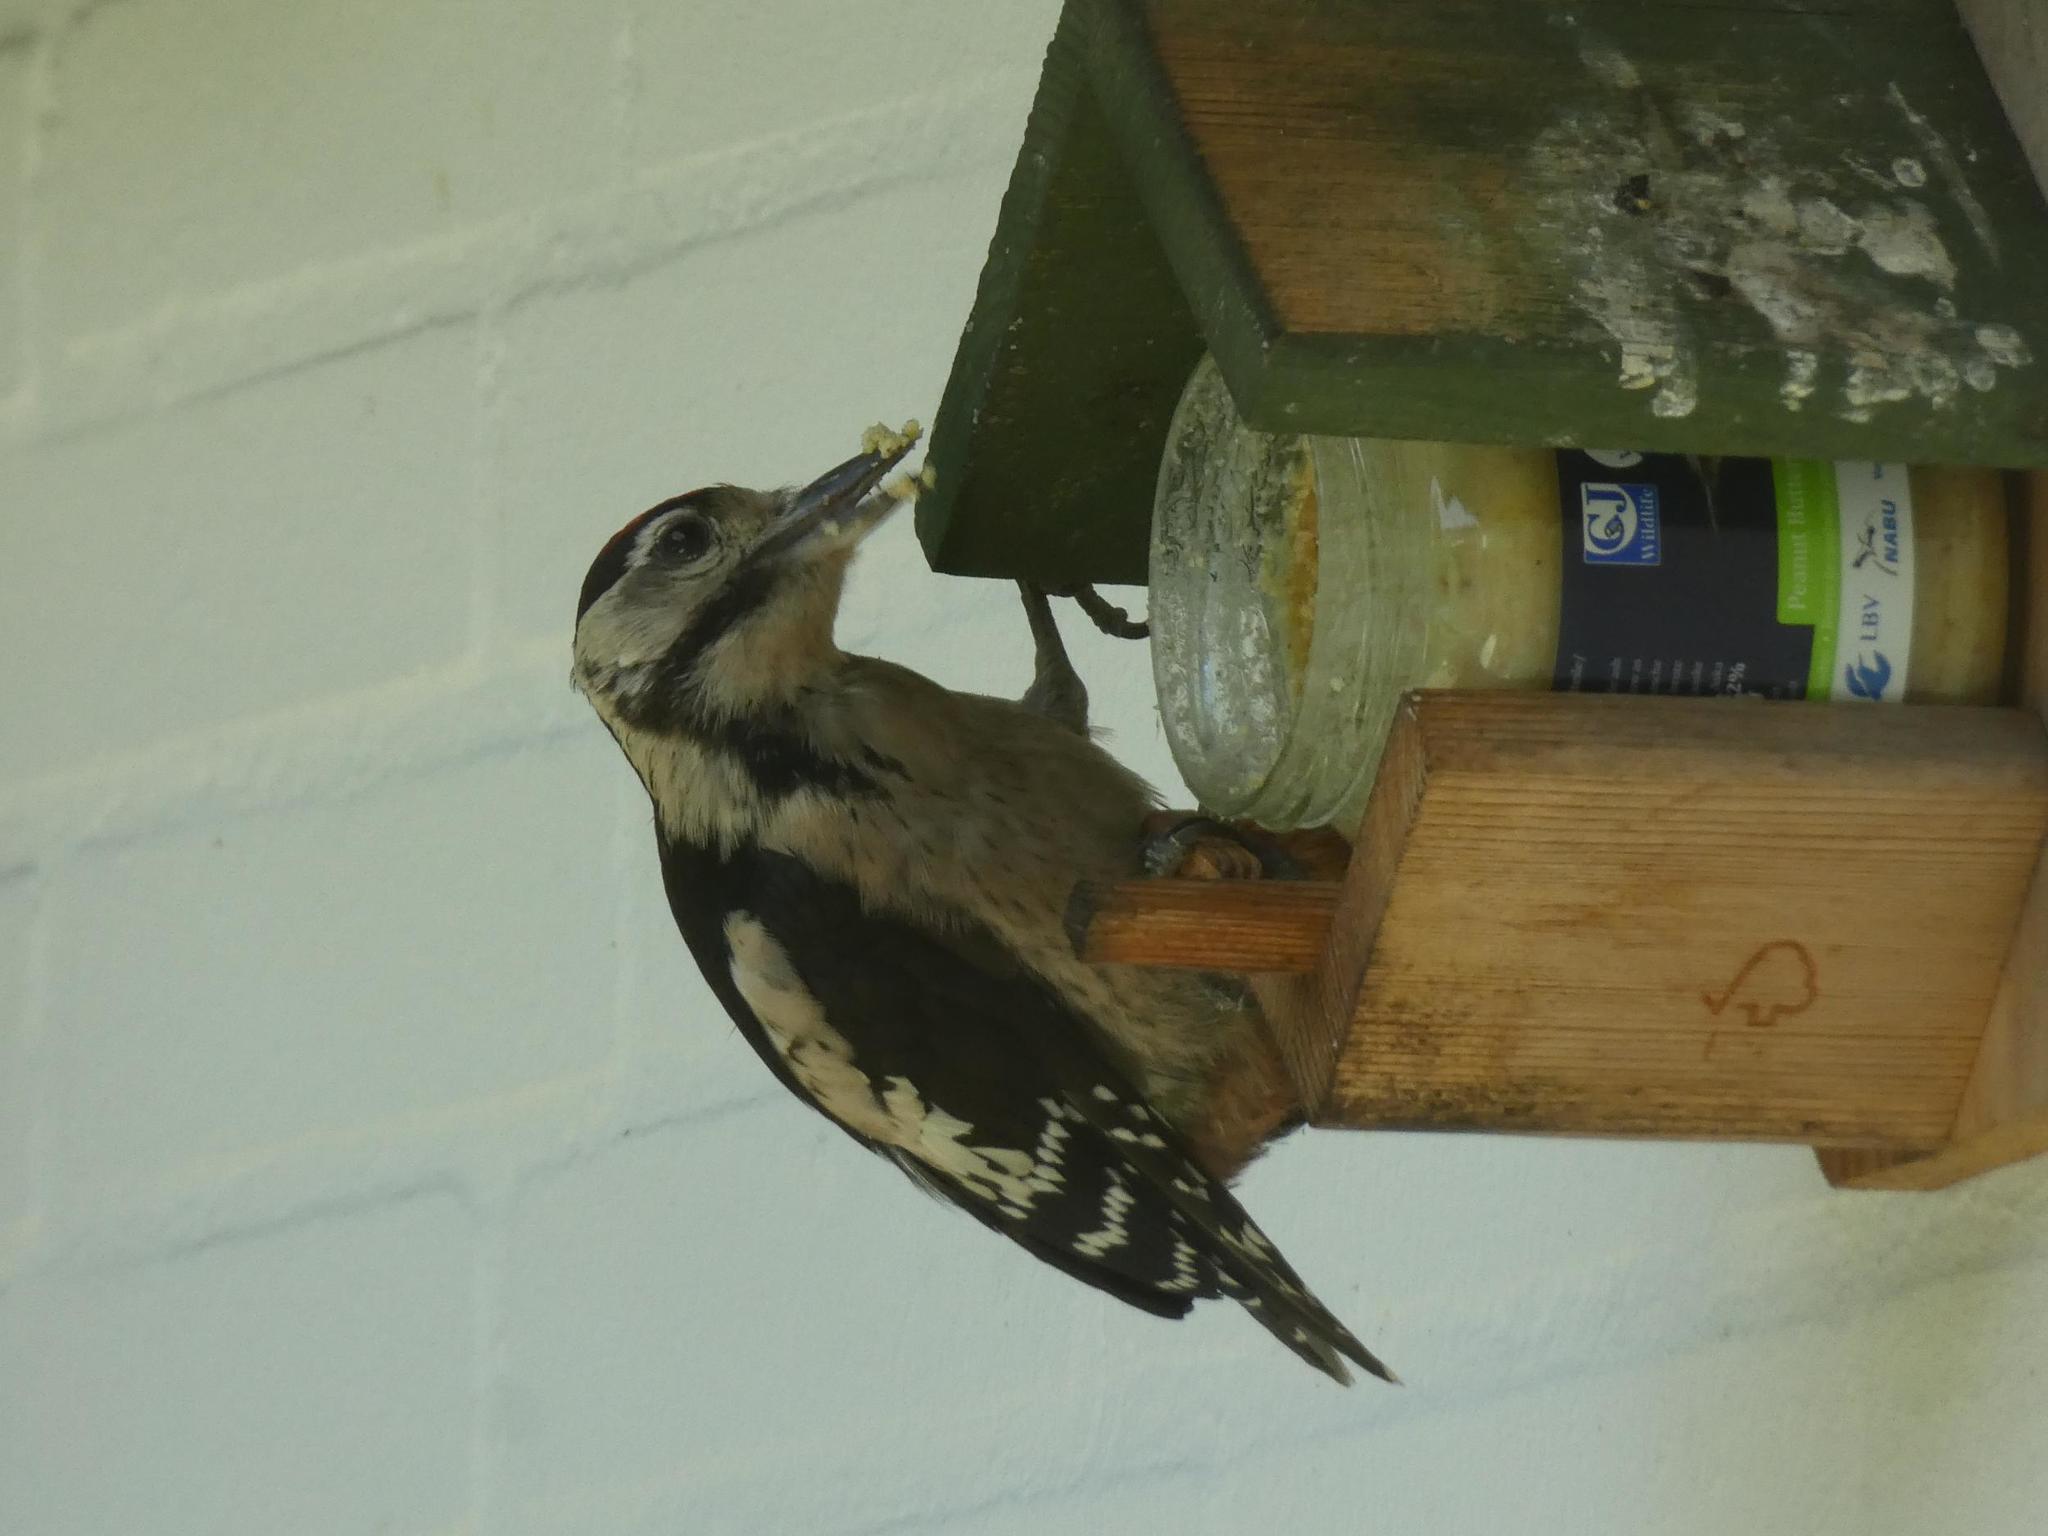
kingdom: Animalia
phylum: Chordata
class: Aves
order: Piciformes
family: Picidae
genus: Dendrocopos
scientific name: Dendrocopos major
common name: Great spotted woodpecker
